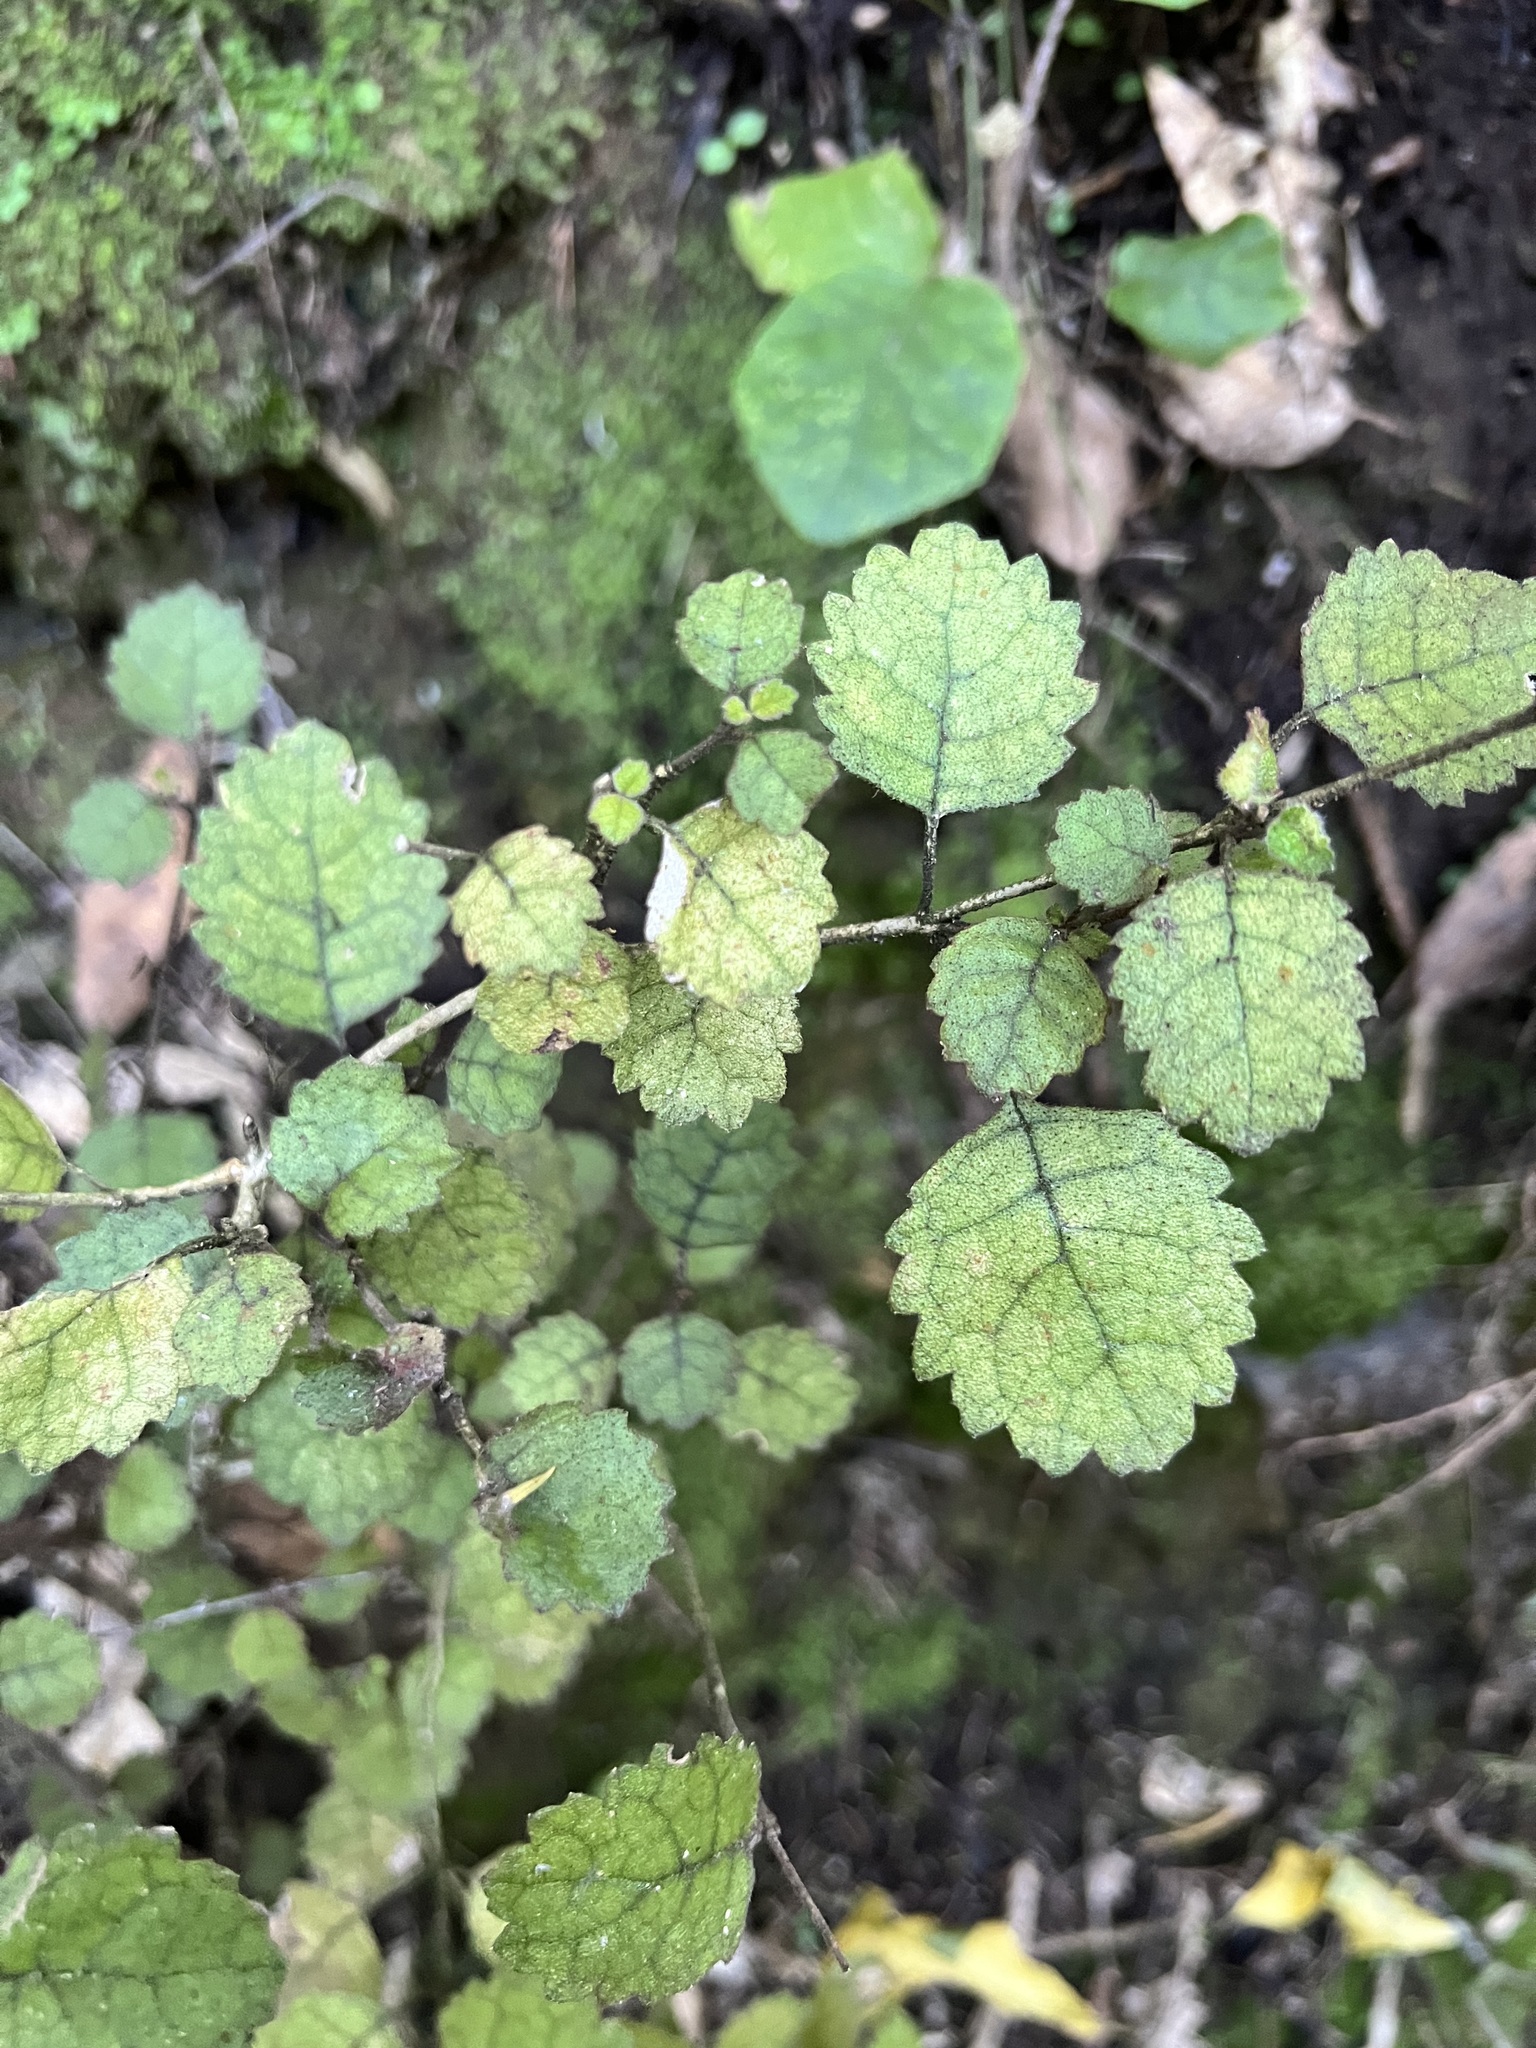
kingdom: Plantae
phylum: Tracheophyta
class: Magnoliopsida
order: Lamiales
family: Gesneriaceae
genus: Rhabdothamnus
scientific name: Rhabdothamnus solandri
